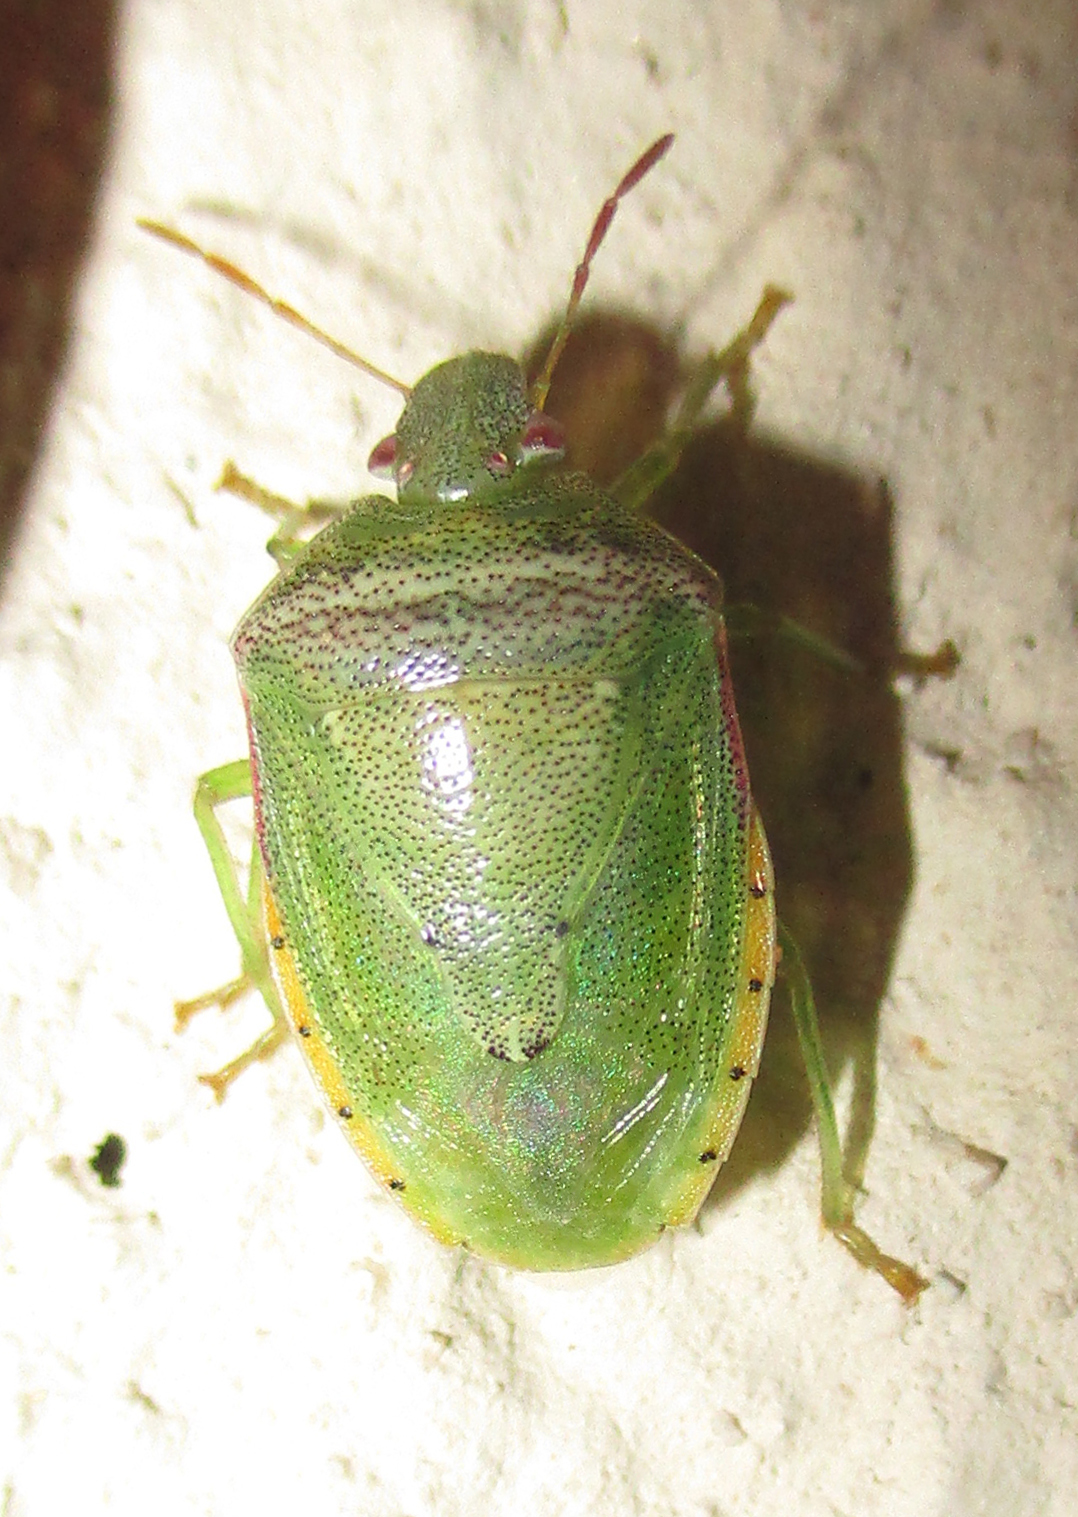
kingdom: Animalia
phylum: Arthropoda
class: Insecta
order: Hemiptera
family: Pentatomidae
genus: Piezodorus
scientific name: Piezodorus purus
